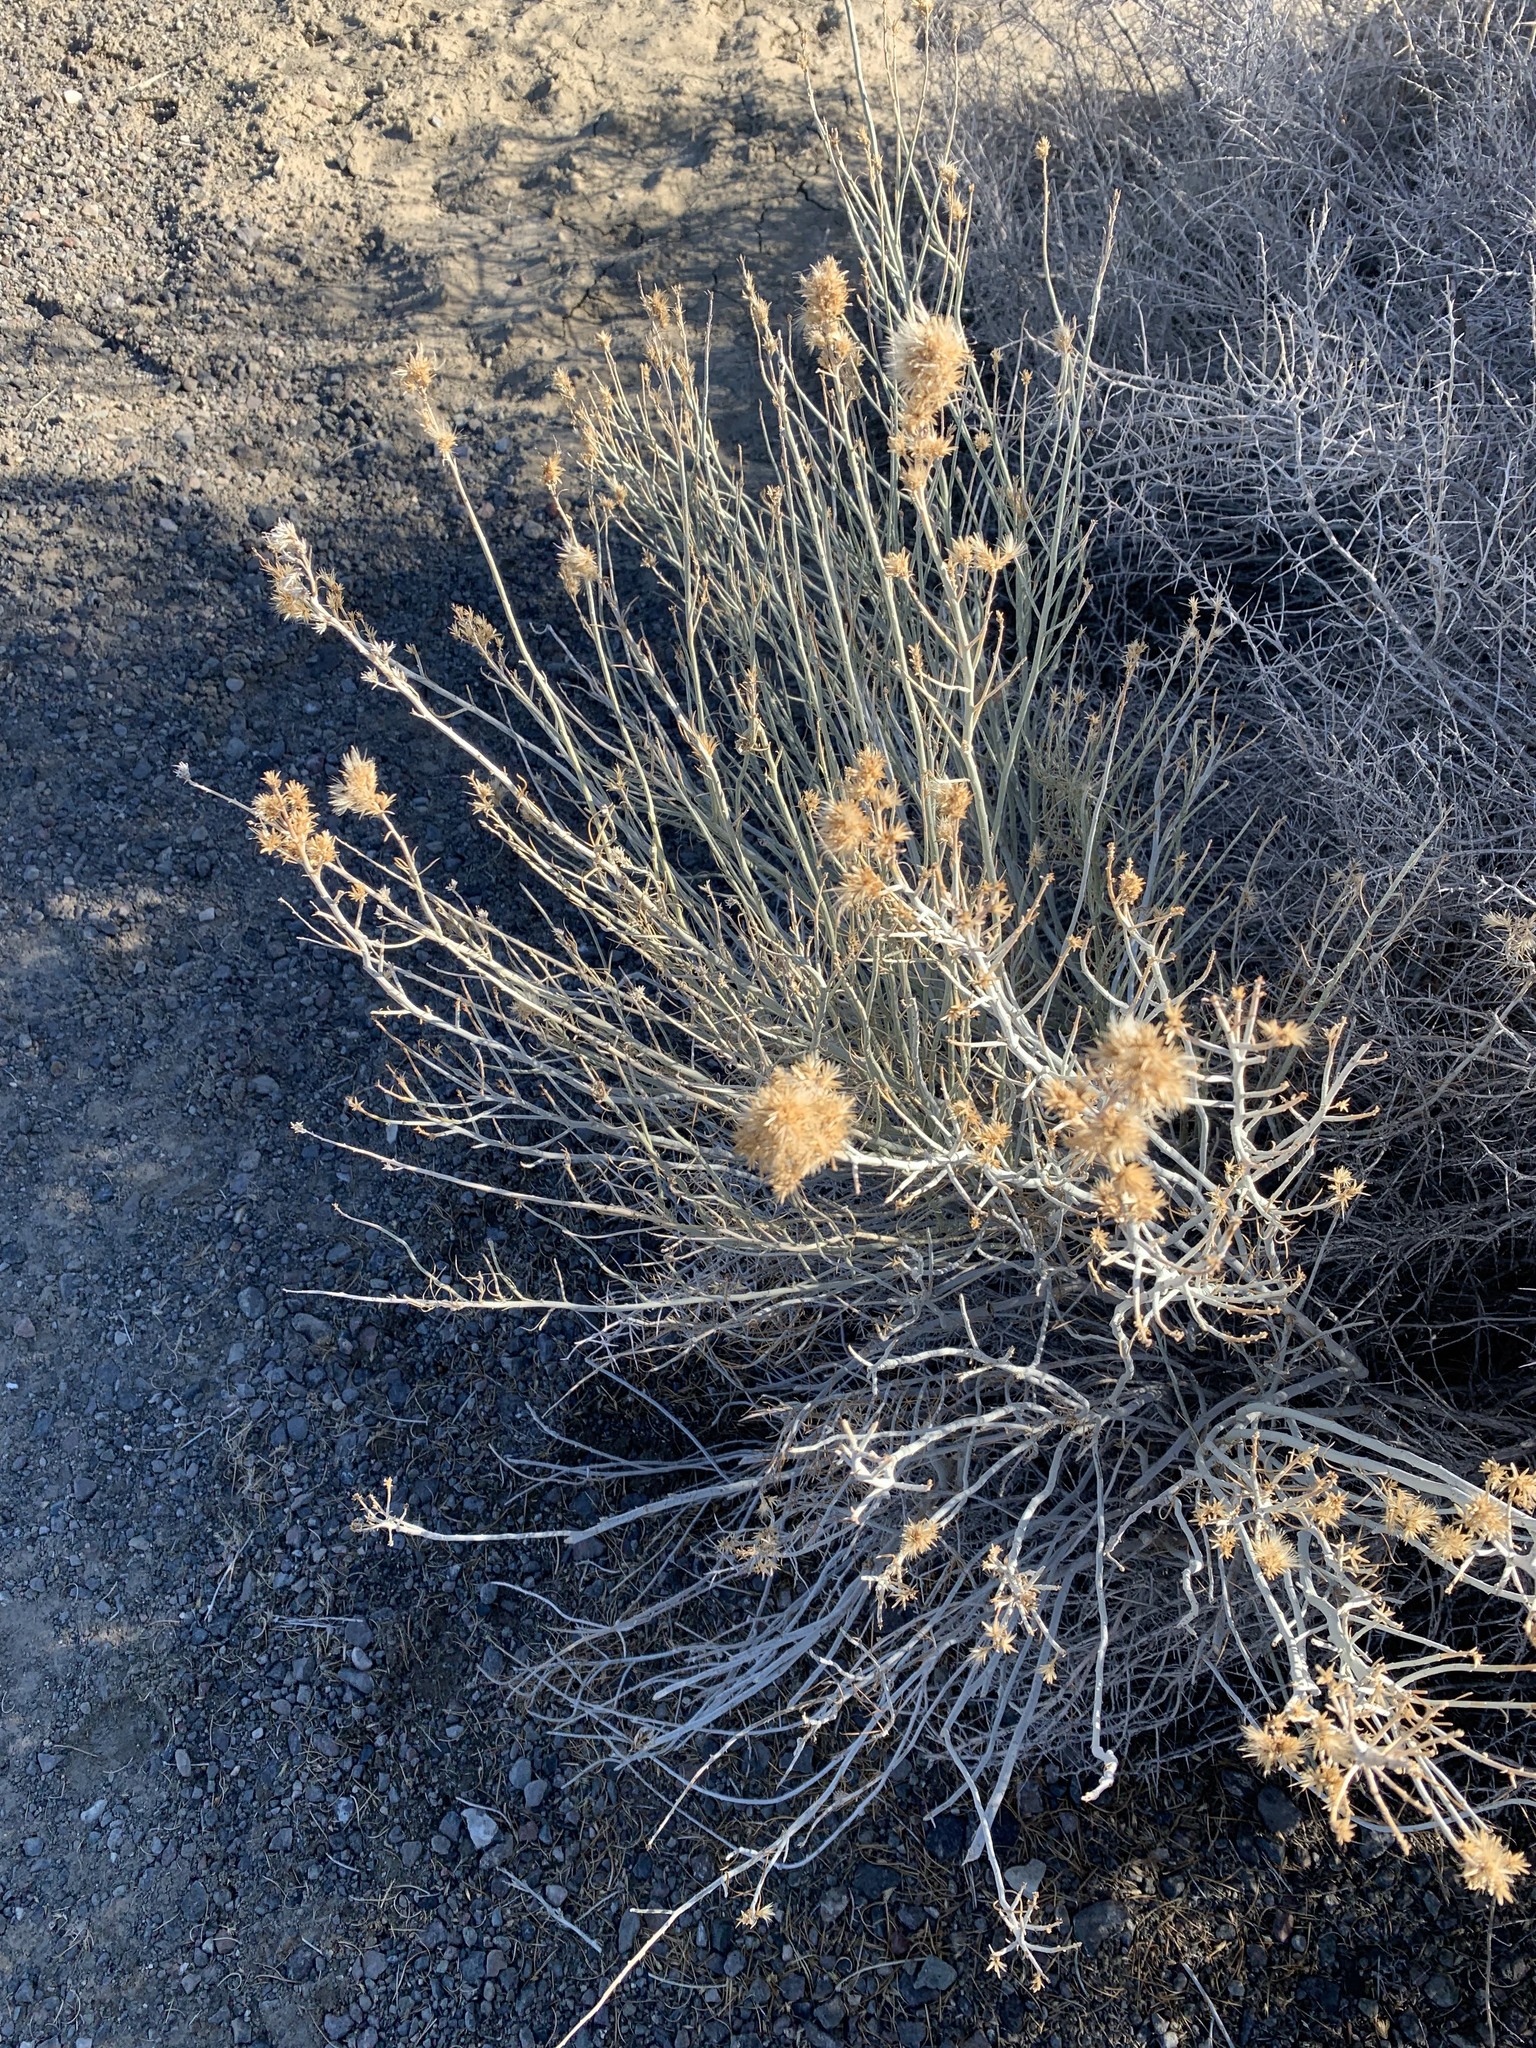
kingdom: Plantae
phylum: Tracheophyta
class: Magnoliopsida
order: Asterales
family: Asteraceae
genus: Ericameria
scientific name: Ericameria nauseosa
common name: Rubber rabbitbrush
